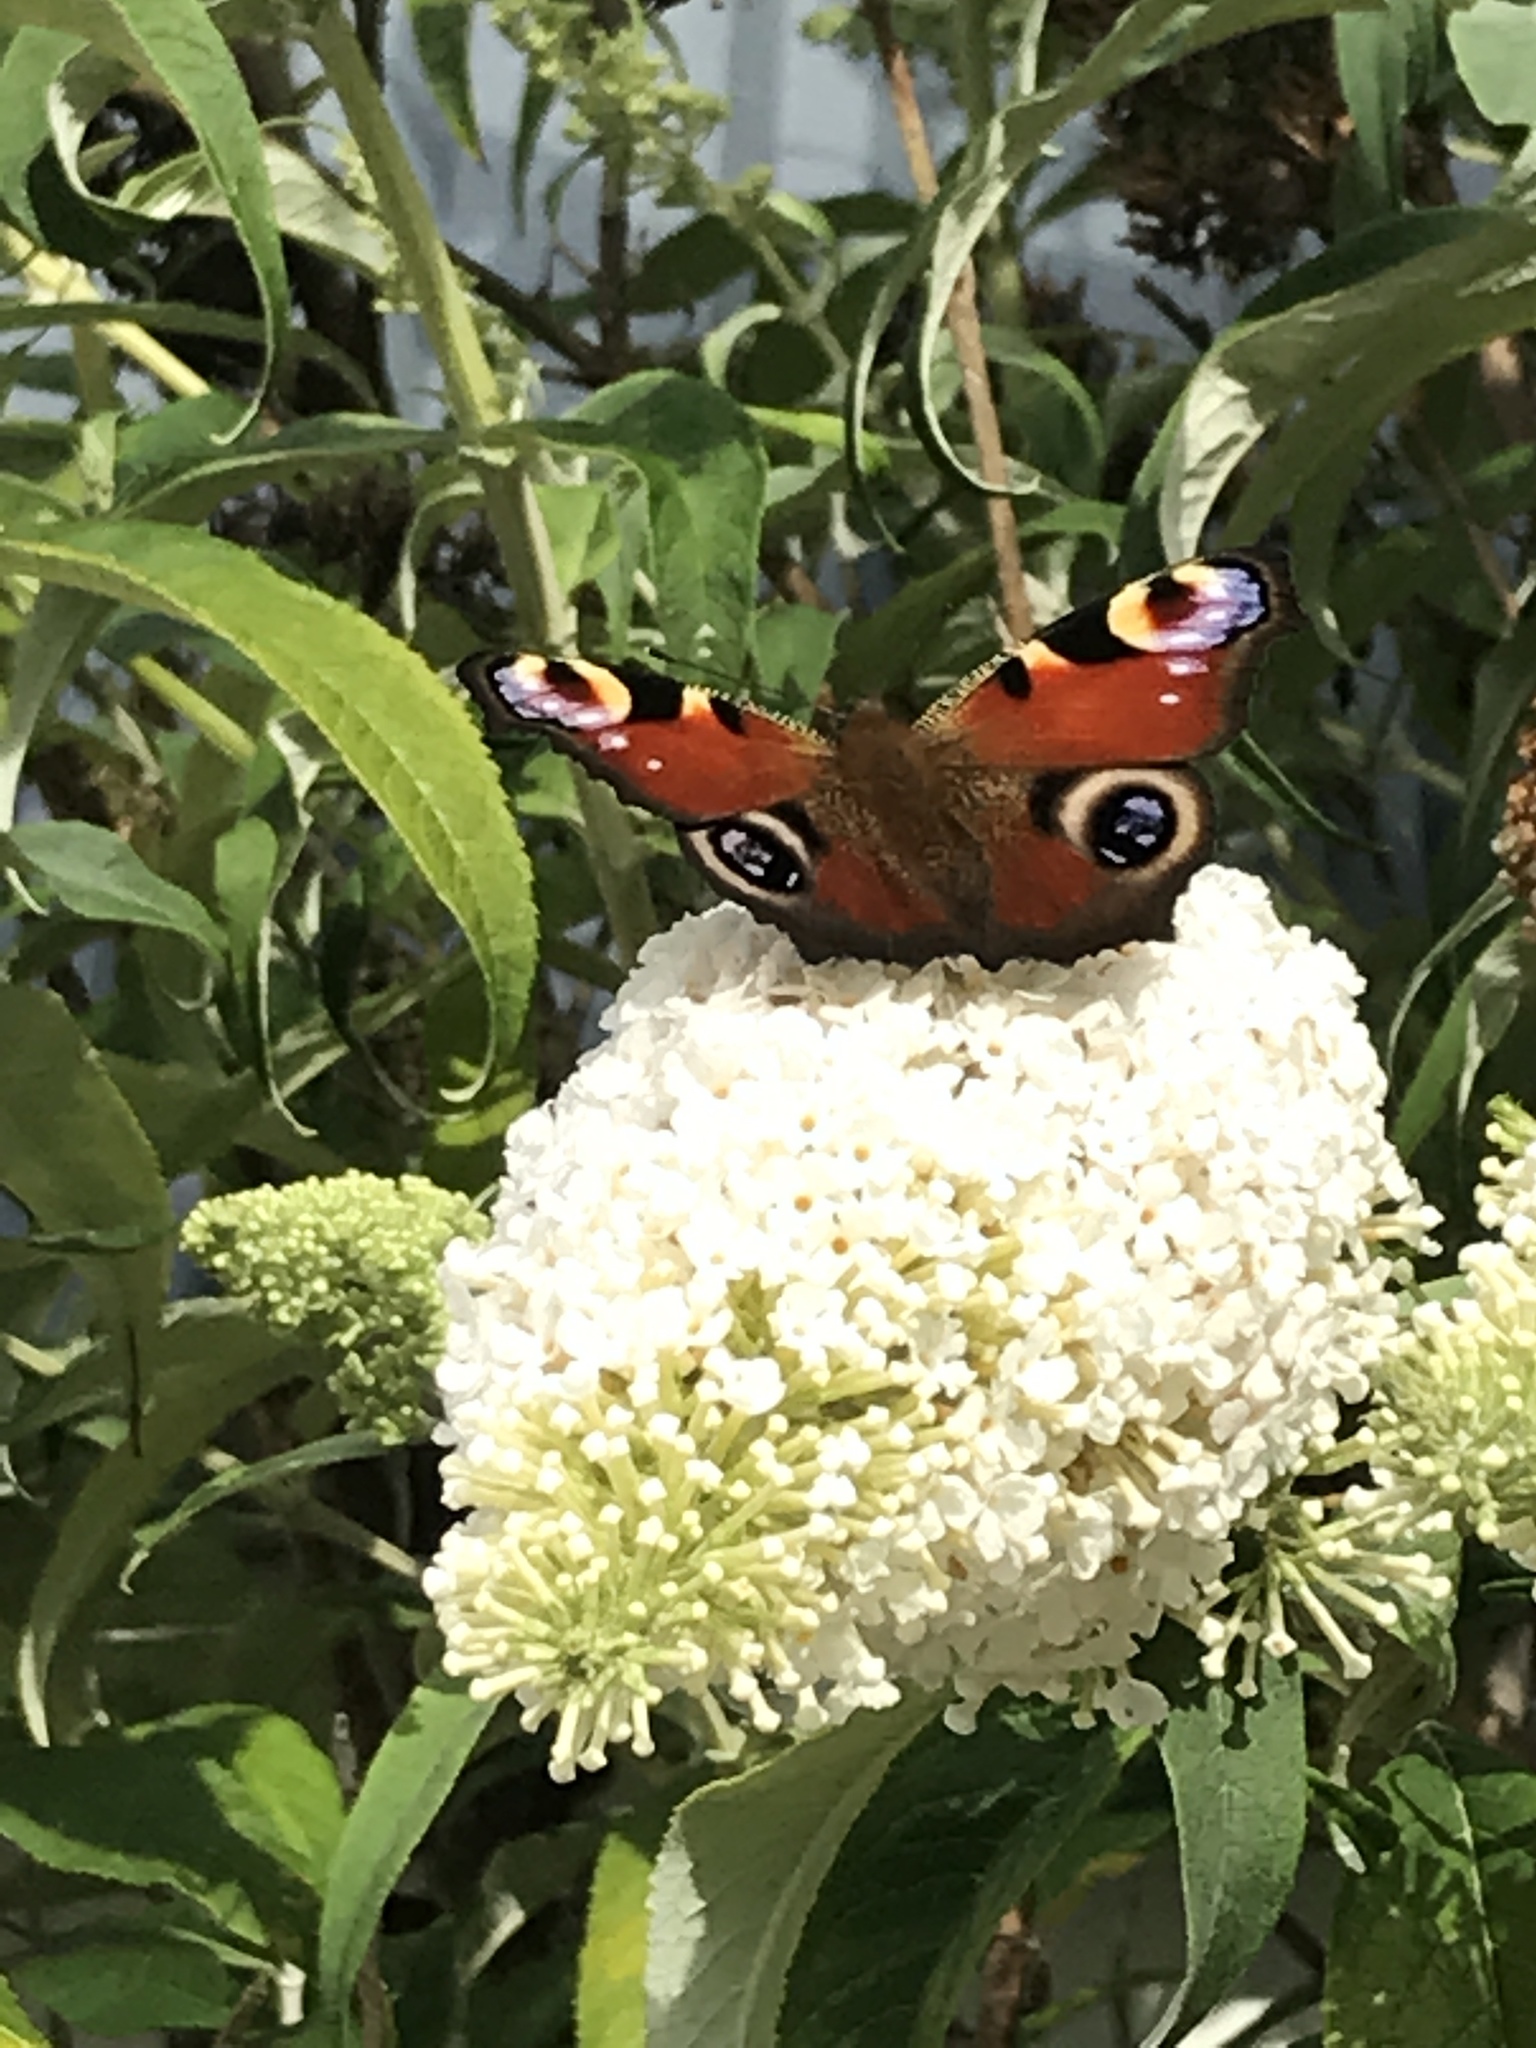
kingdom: Animalia
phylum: Arthropoda
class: Insecta
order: Lepidoptera
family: Nymphalidae
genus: Aglais
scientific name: Aglais io
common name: Peacock
